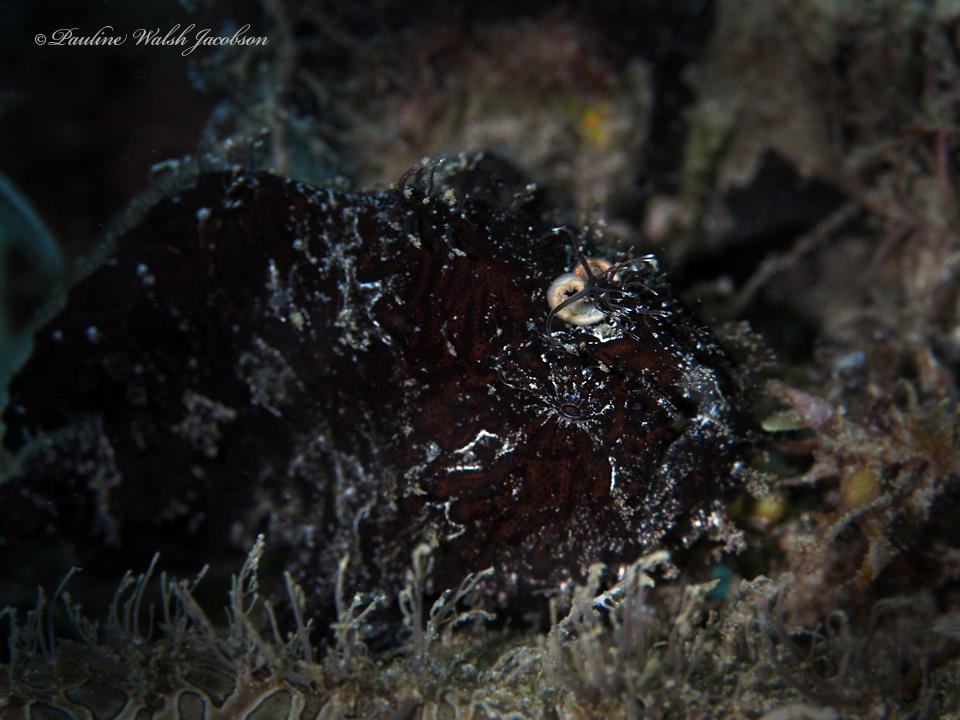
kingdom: Animalia
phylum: Chordata
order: Lophiiformes
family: Antennariidae
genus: Antennarius
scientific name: Antennarius striatus
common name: Striated frogfish
